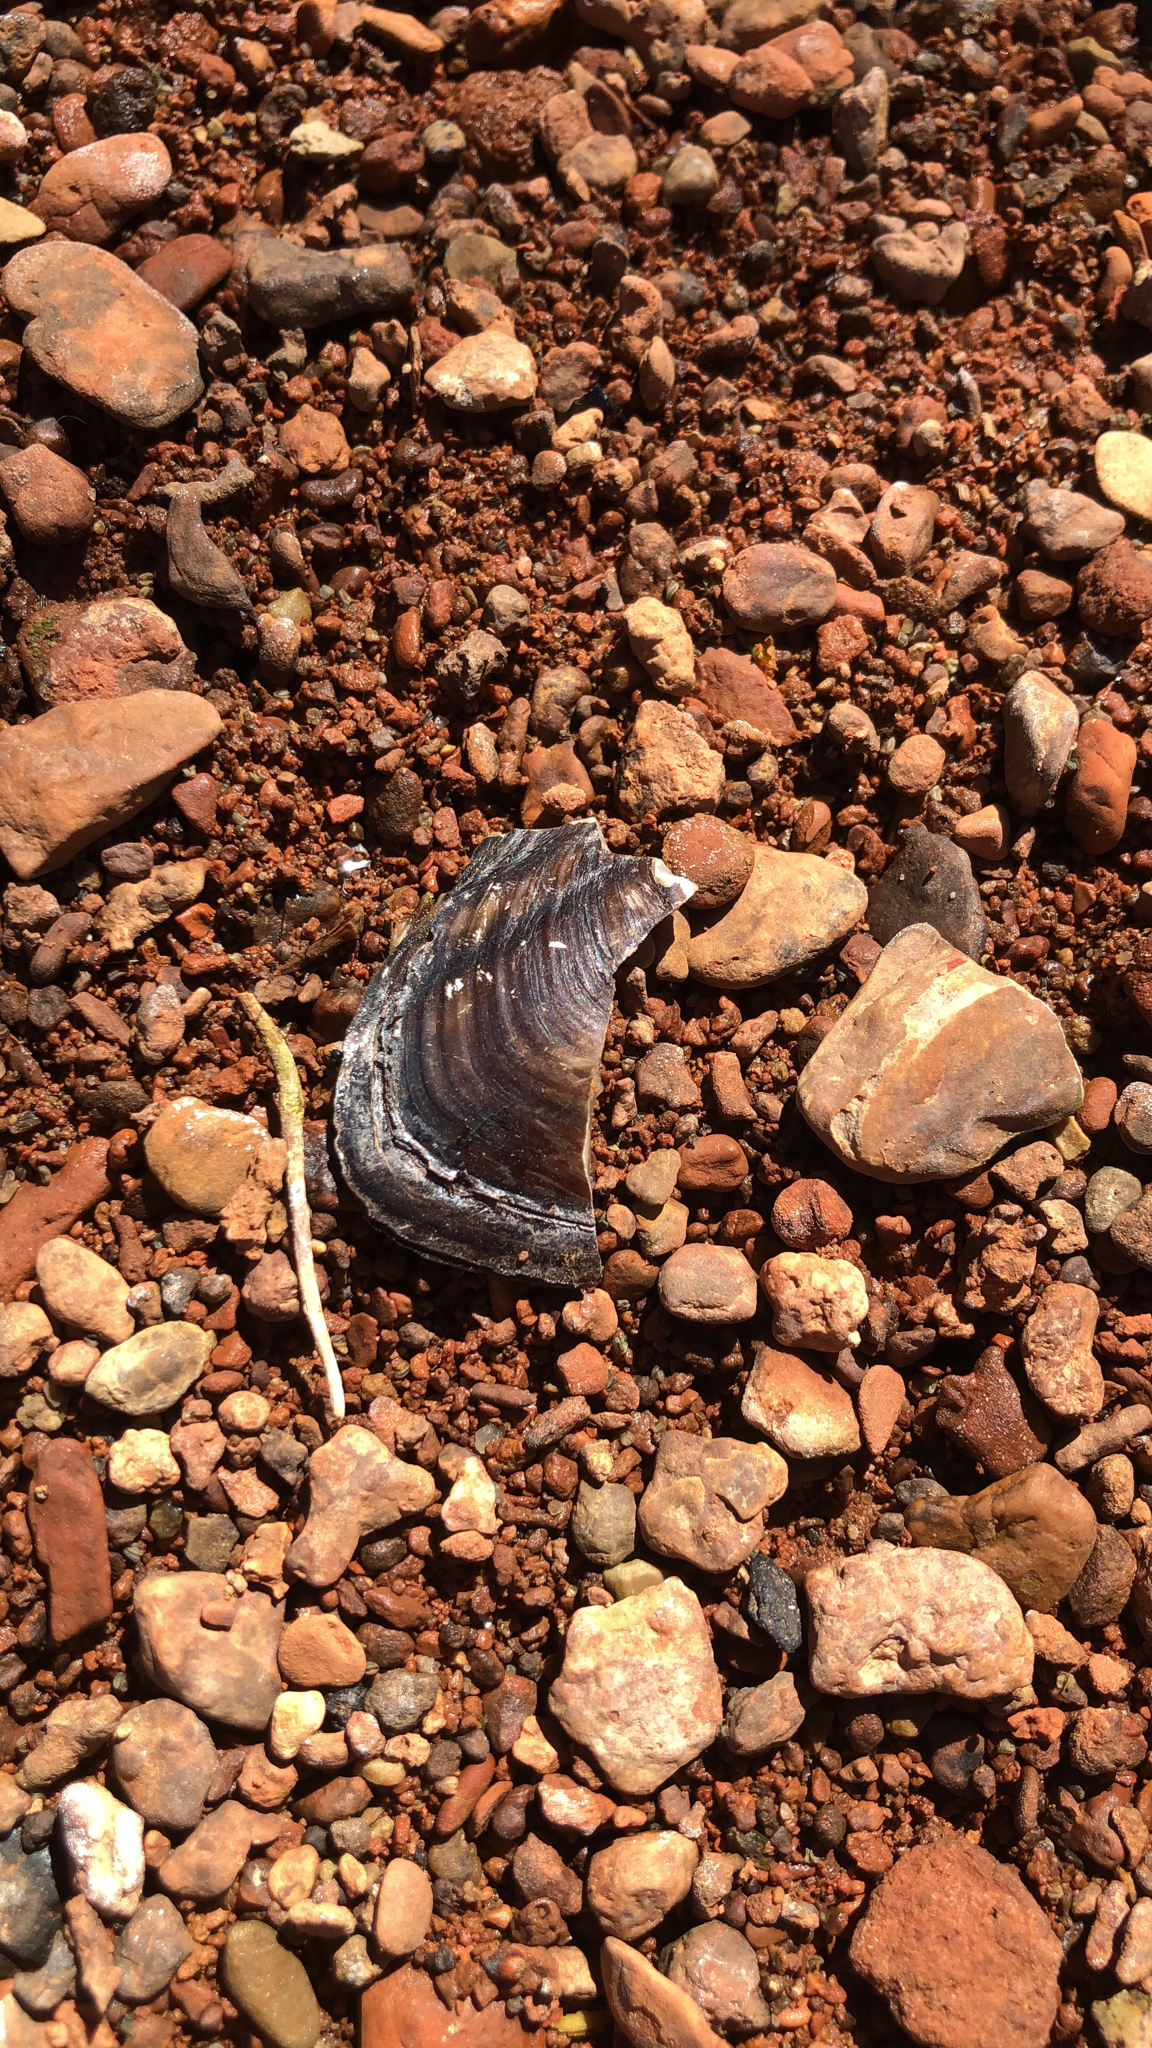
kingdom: Animalia
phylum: Mollusca
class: Bivalvia
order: Unionida
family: Unionidae
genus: Uniomerus
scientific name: Uniomerus tetralasmus
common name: Pondhorn
